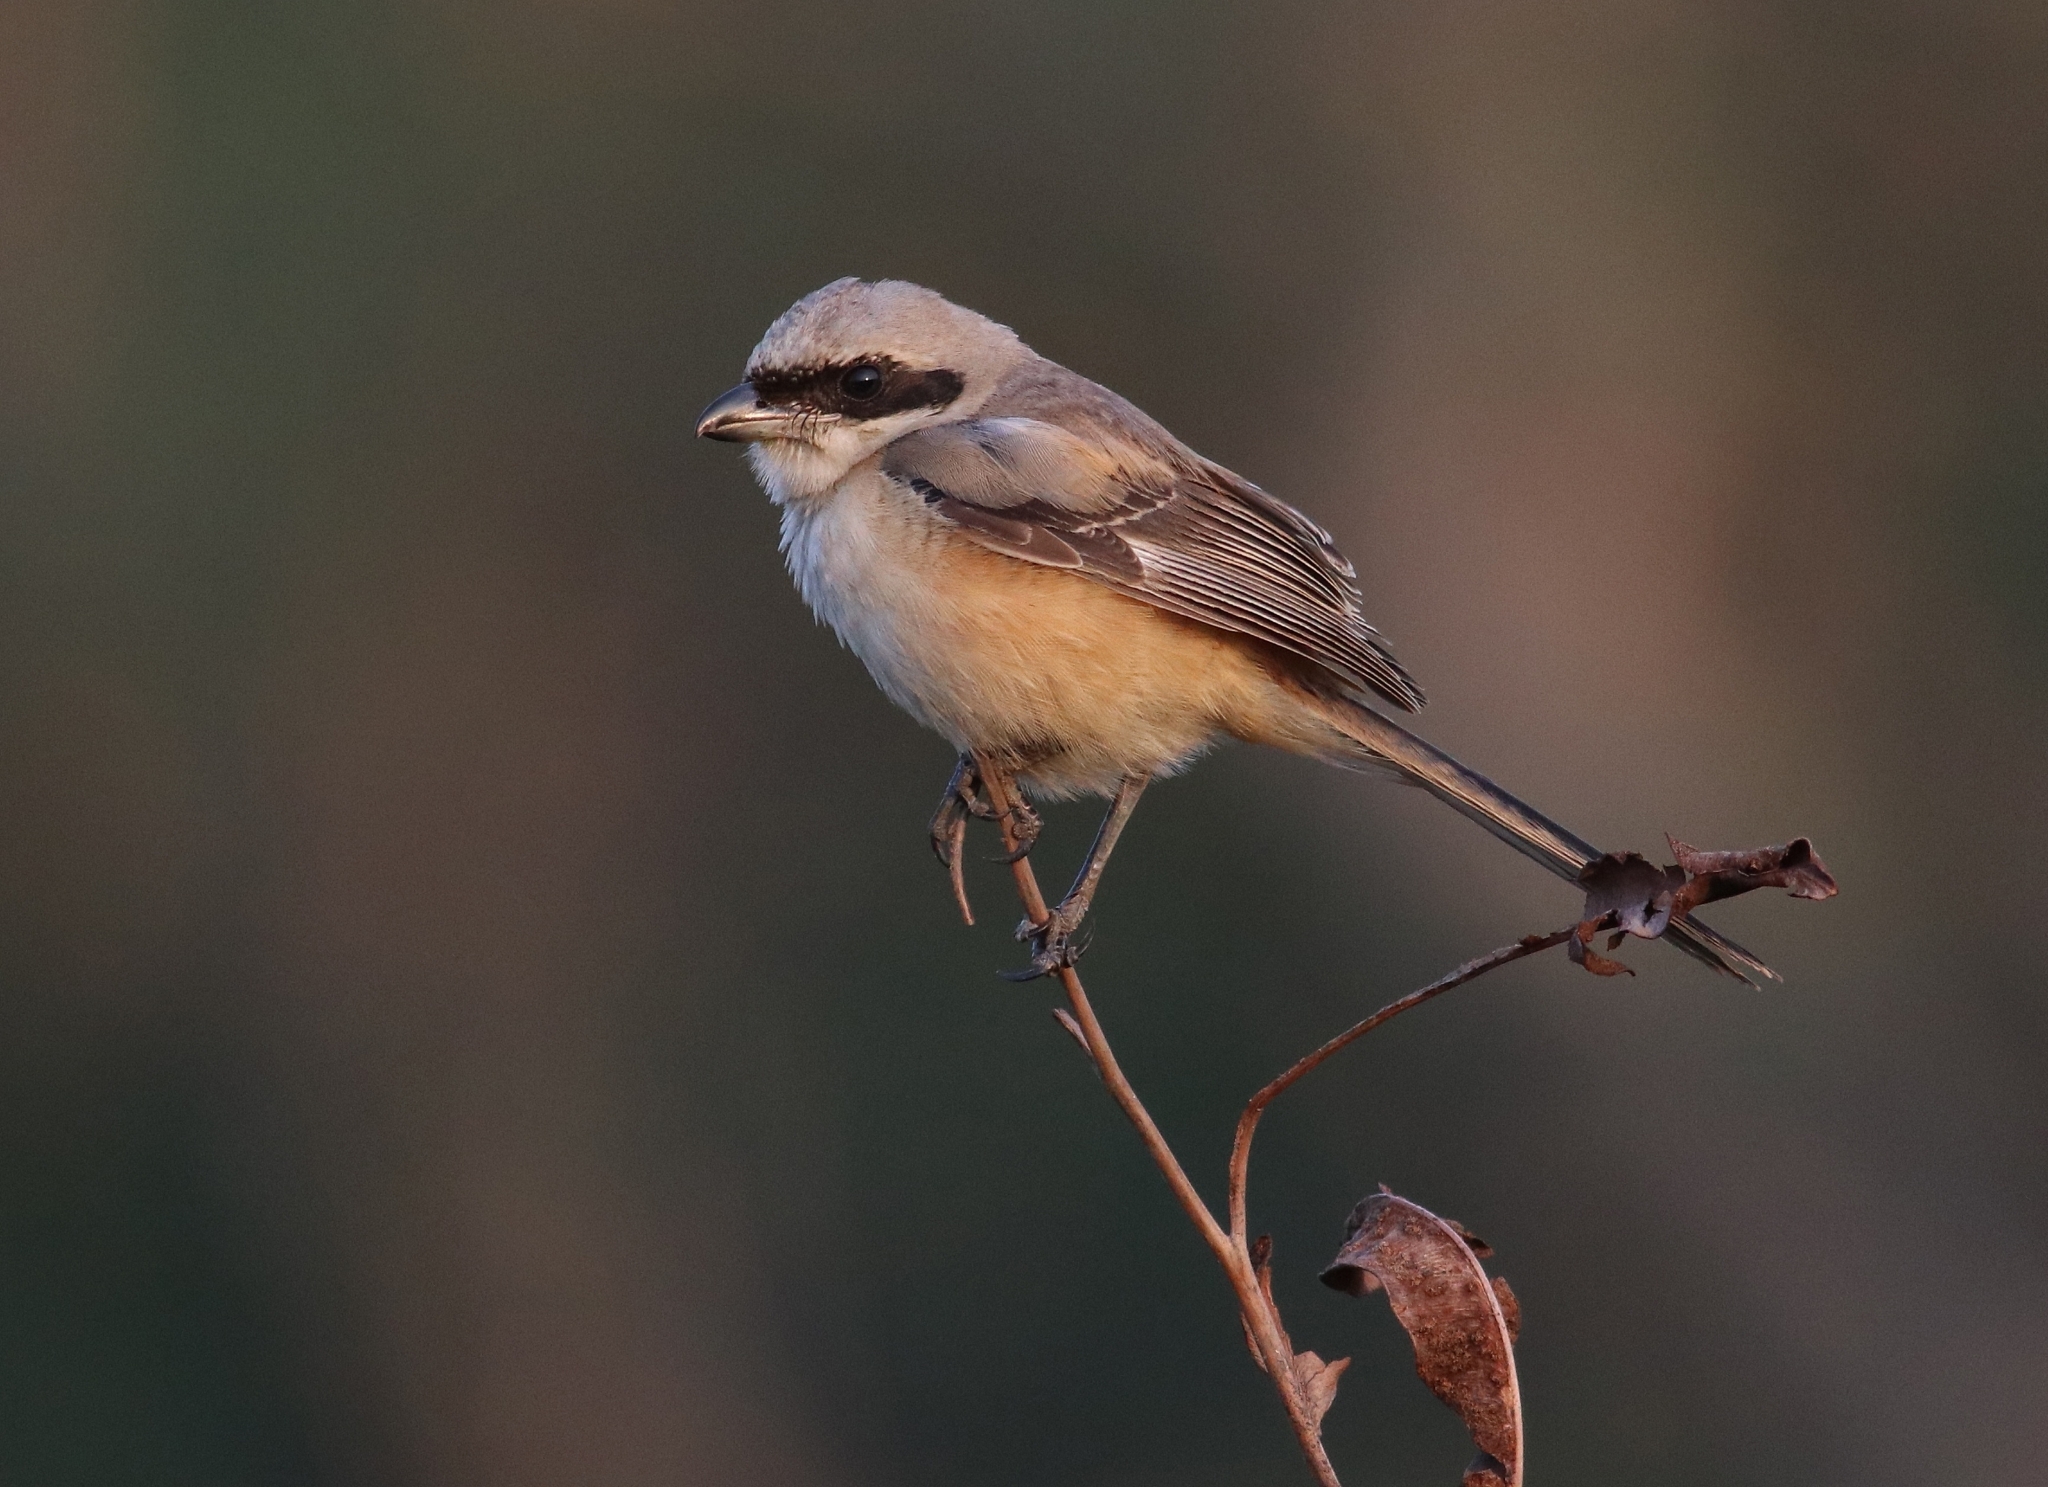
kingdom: Animalia
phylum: Chordata
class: Aves
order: Passeriformes
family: Laniidae
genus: Lanius
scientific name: Lanius schach
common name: Long-tailed shrike
